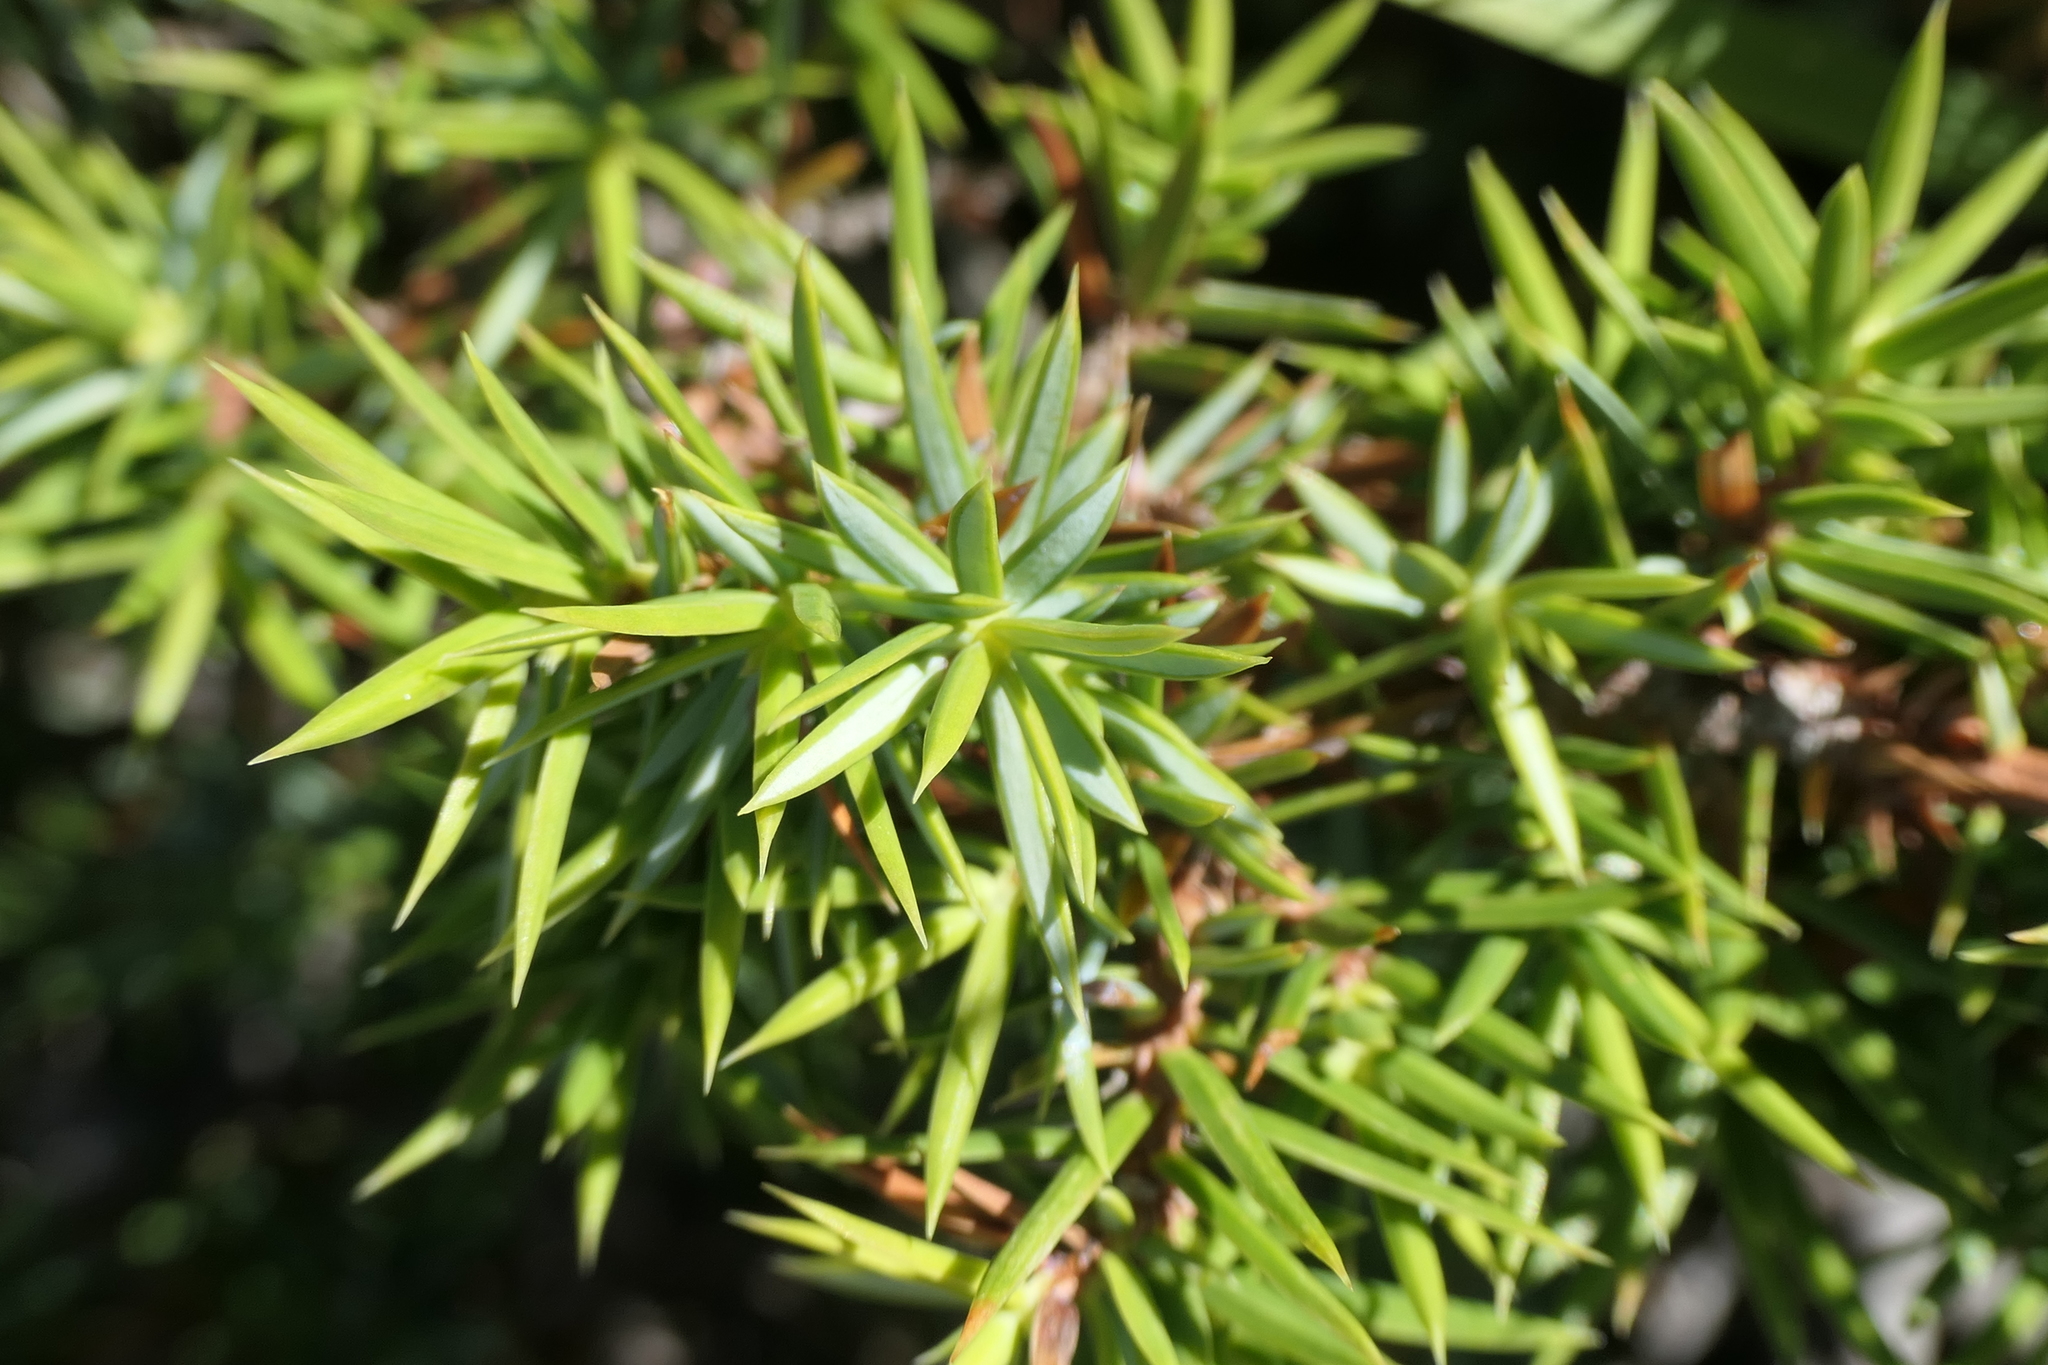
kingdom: Plantae
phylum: Tracheophyta
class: Pinopsida
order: Pinales
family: Cupressaceae
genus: Juniperus
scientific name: Juniperus communis
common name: Common juniper
